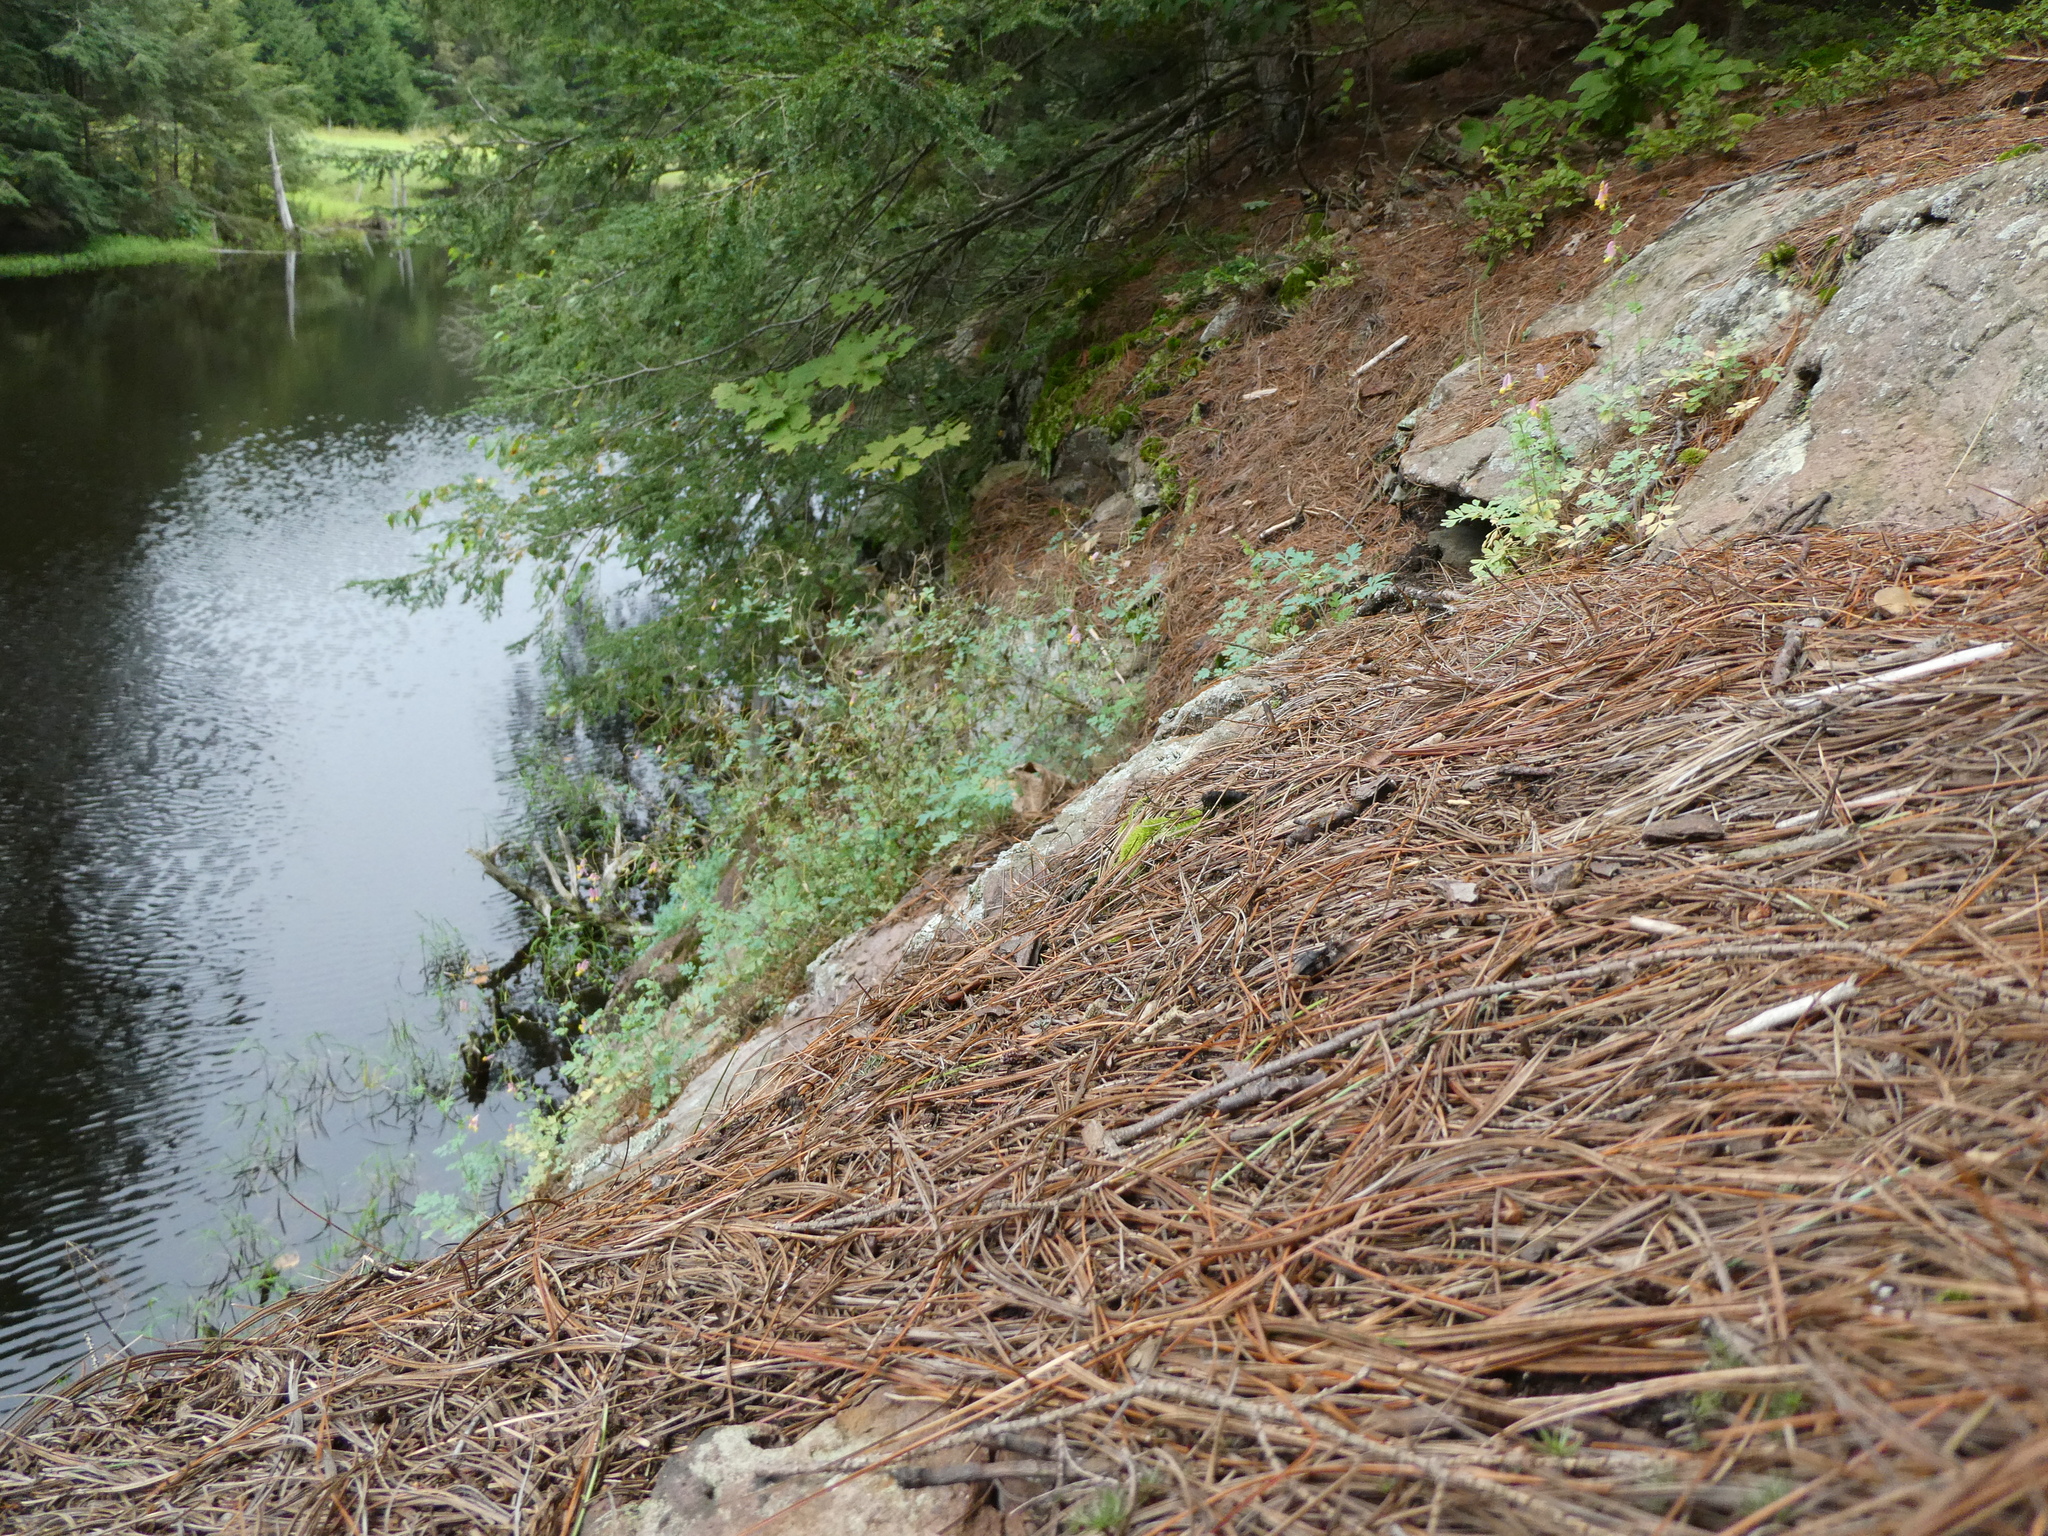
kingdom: Plantae
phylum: Tracheophyta
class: Magnoliopsida
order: Ranunculales
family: Papaveraceae
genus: Capnoides
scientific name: Capnoides sempervirens
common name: Rock harlequin
